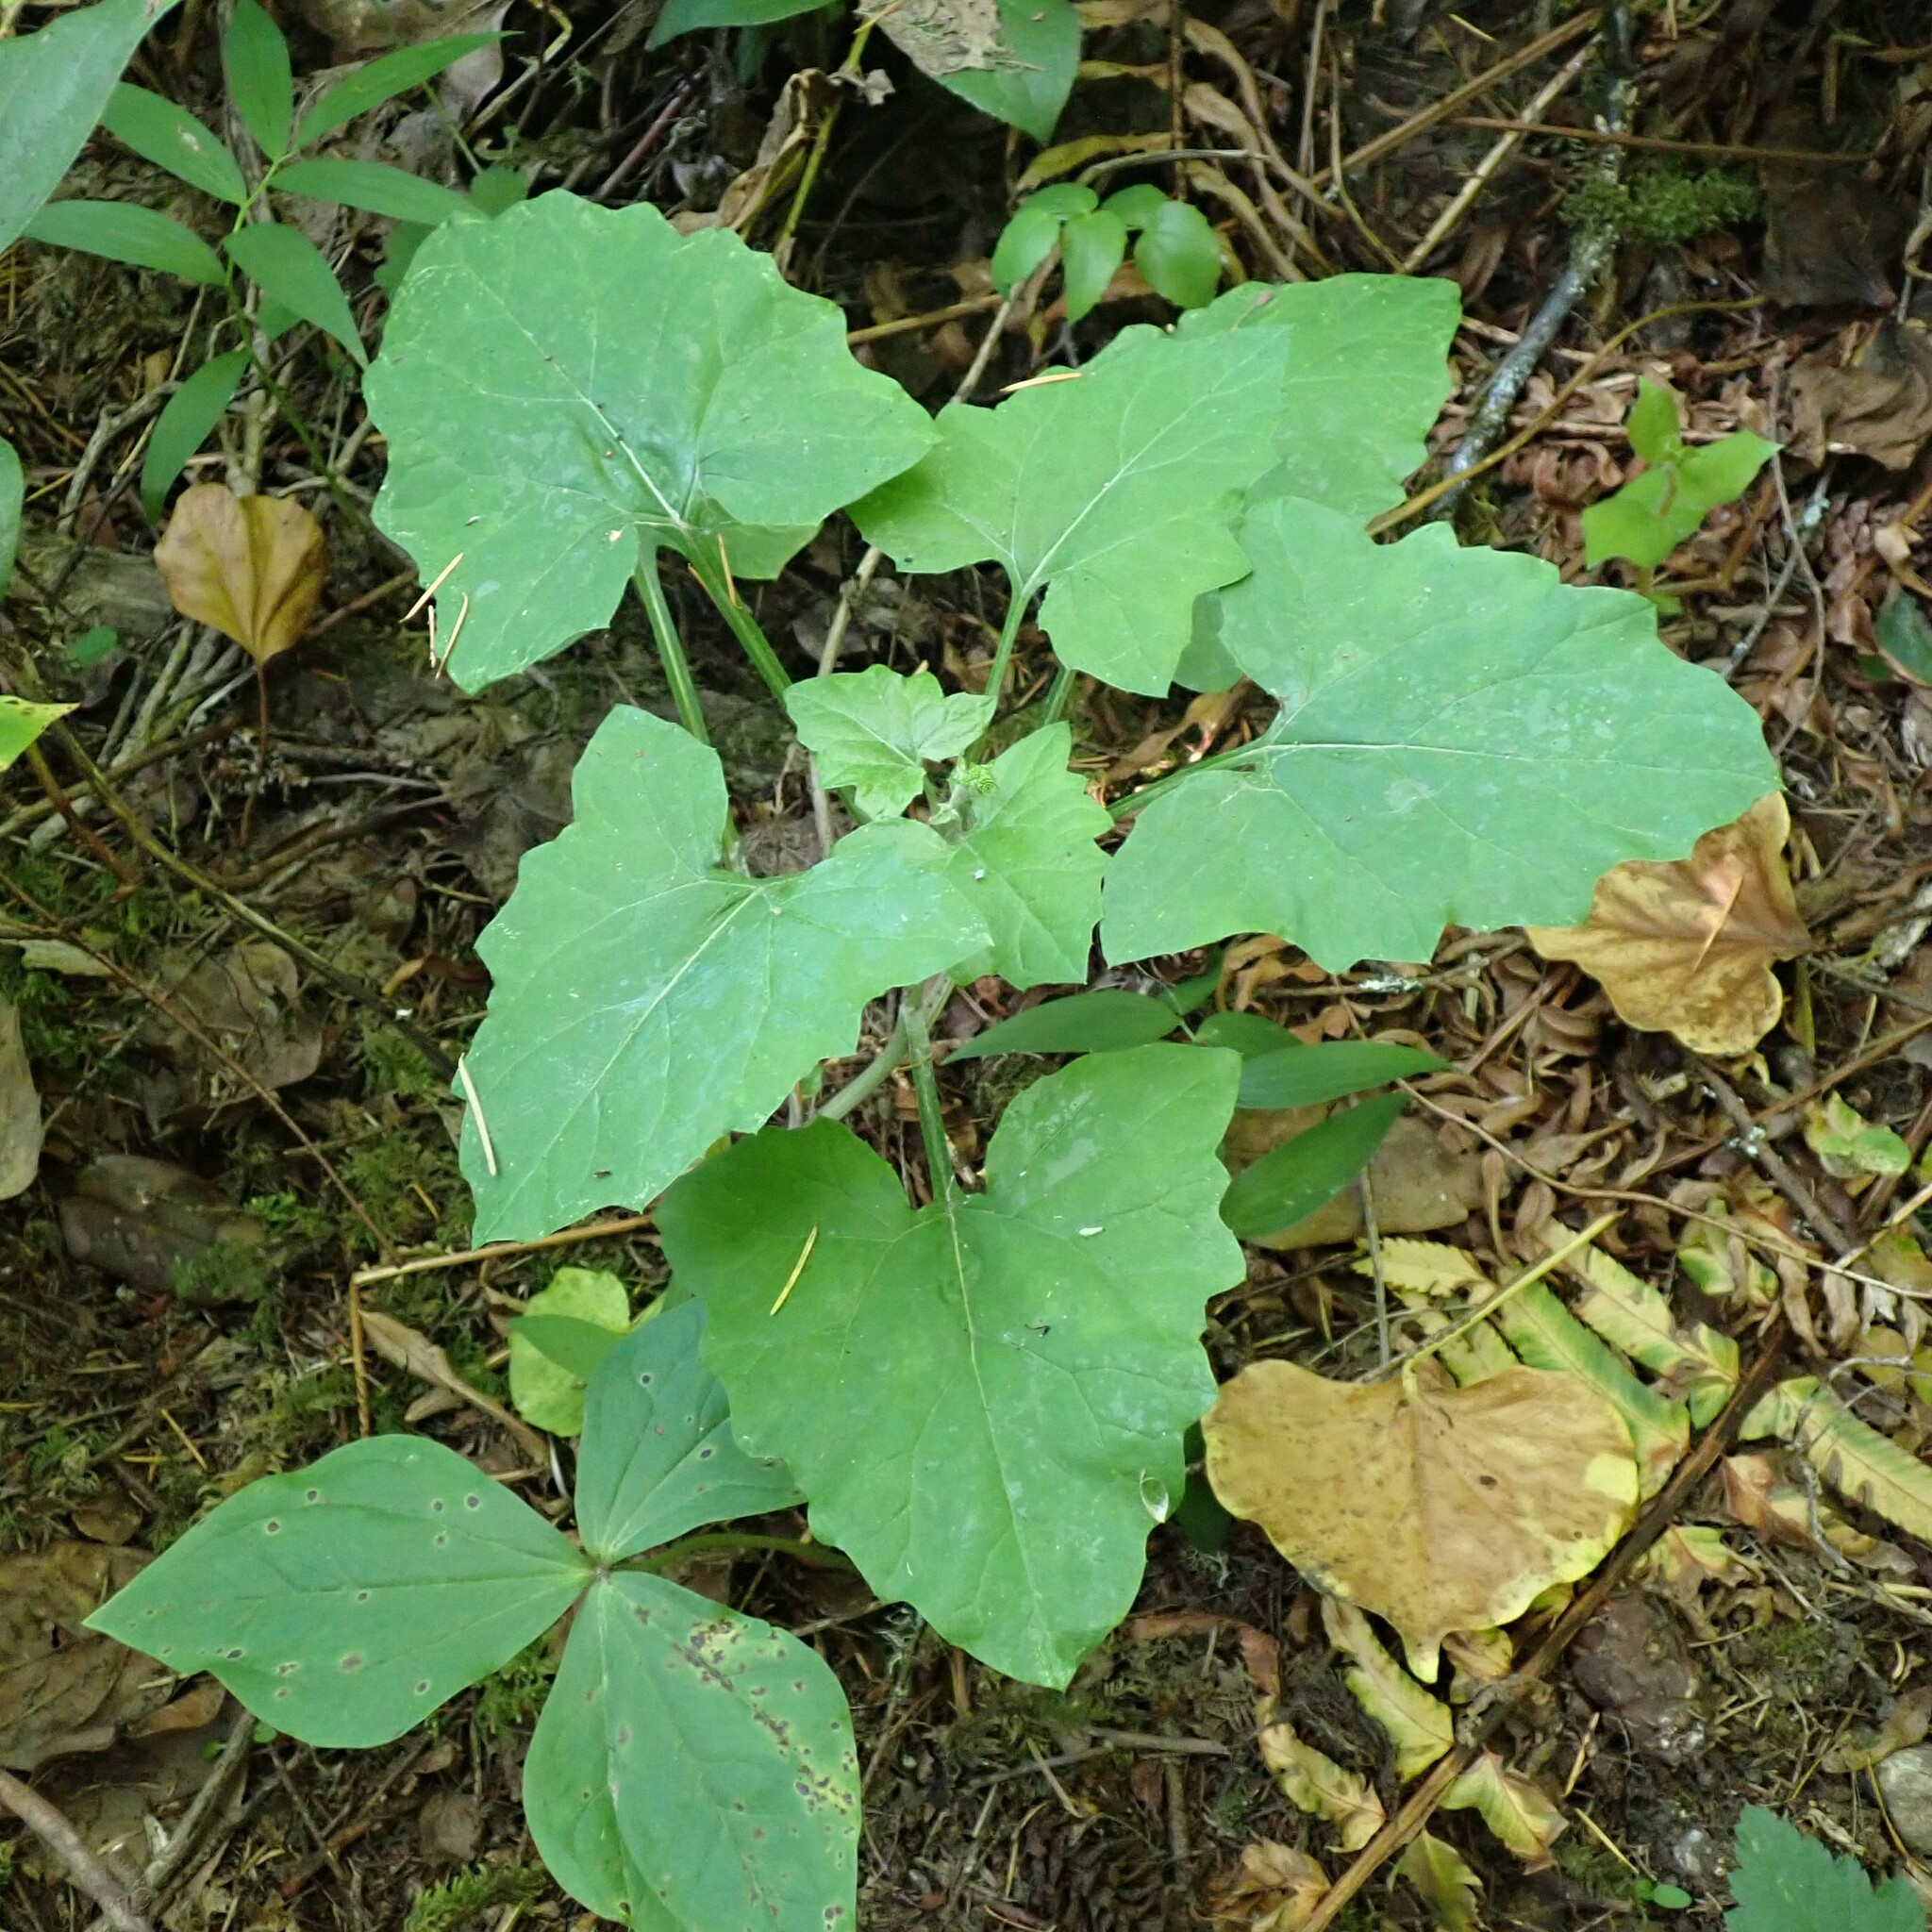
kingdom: Plantae
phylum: Tracheophyta
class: Magnoliopsida
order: Asterales
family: Asteraceae
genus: Adenocaulon
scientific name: Adenocaulon bicolor
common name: Trailplant
